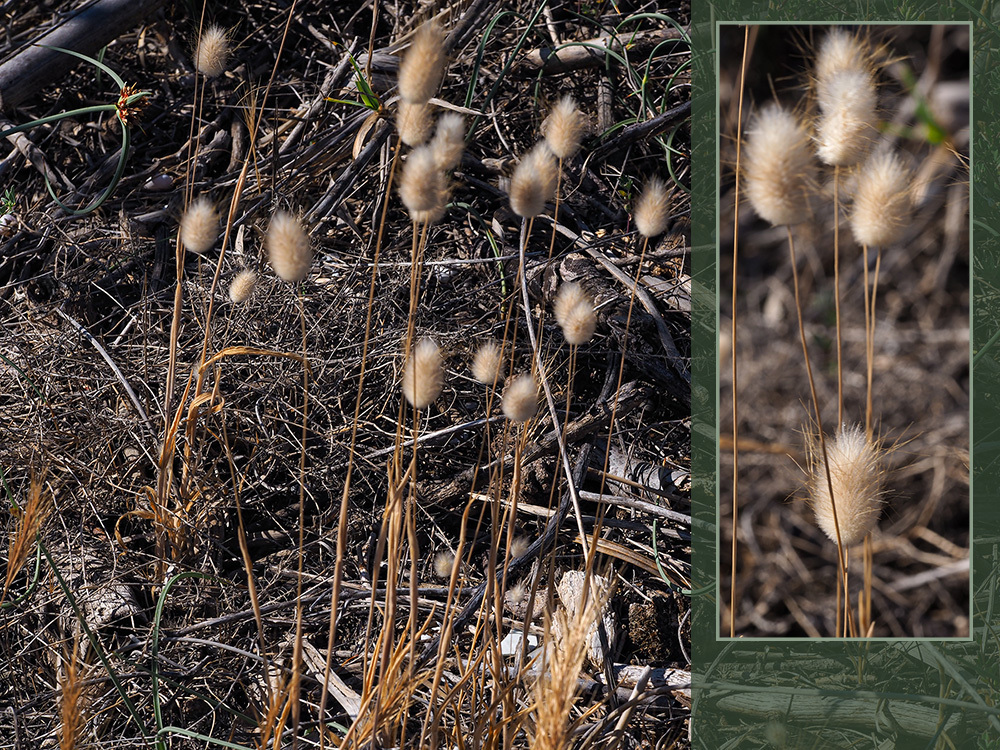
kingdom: Plantae
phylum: Tracheophyta
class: Liliopsida
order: Poales
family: Poaceae
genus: Lagurus
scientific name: Lagurus ovatus
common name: Hare's-tail
